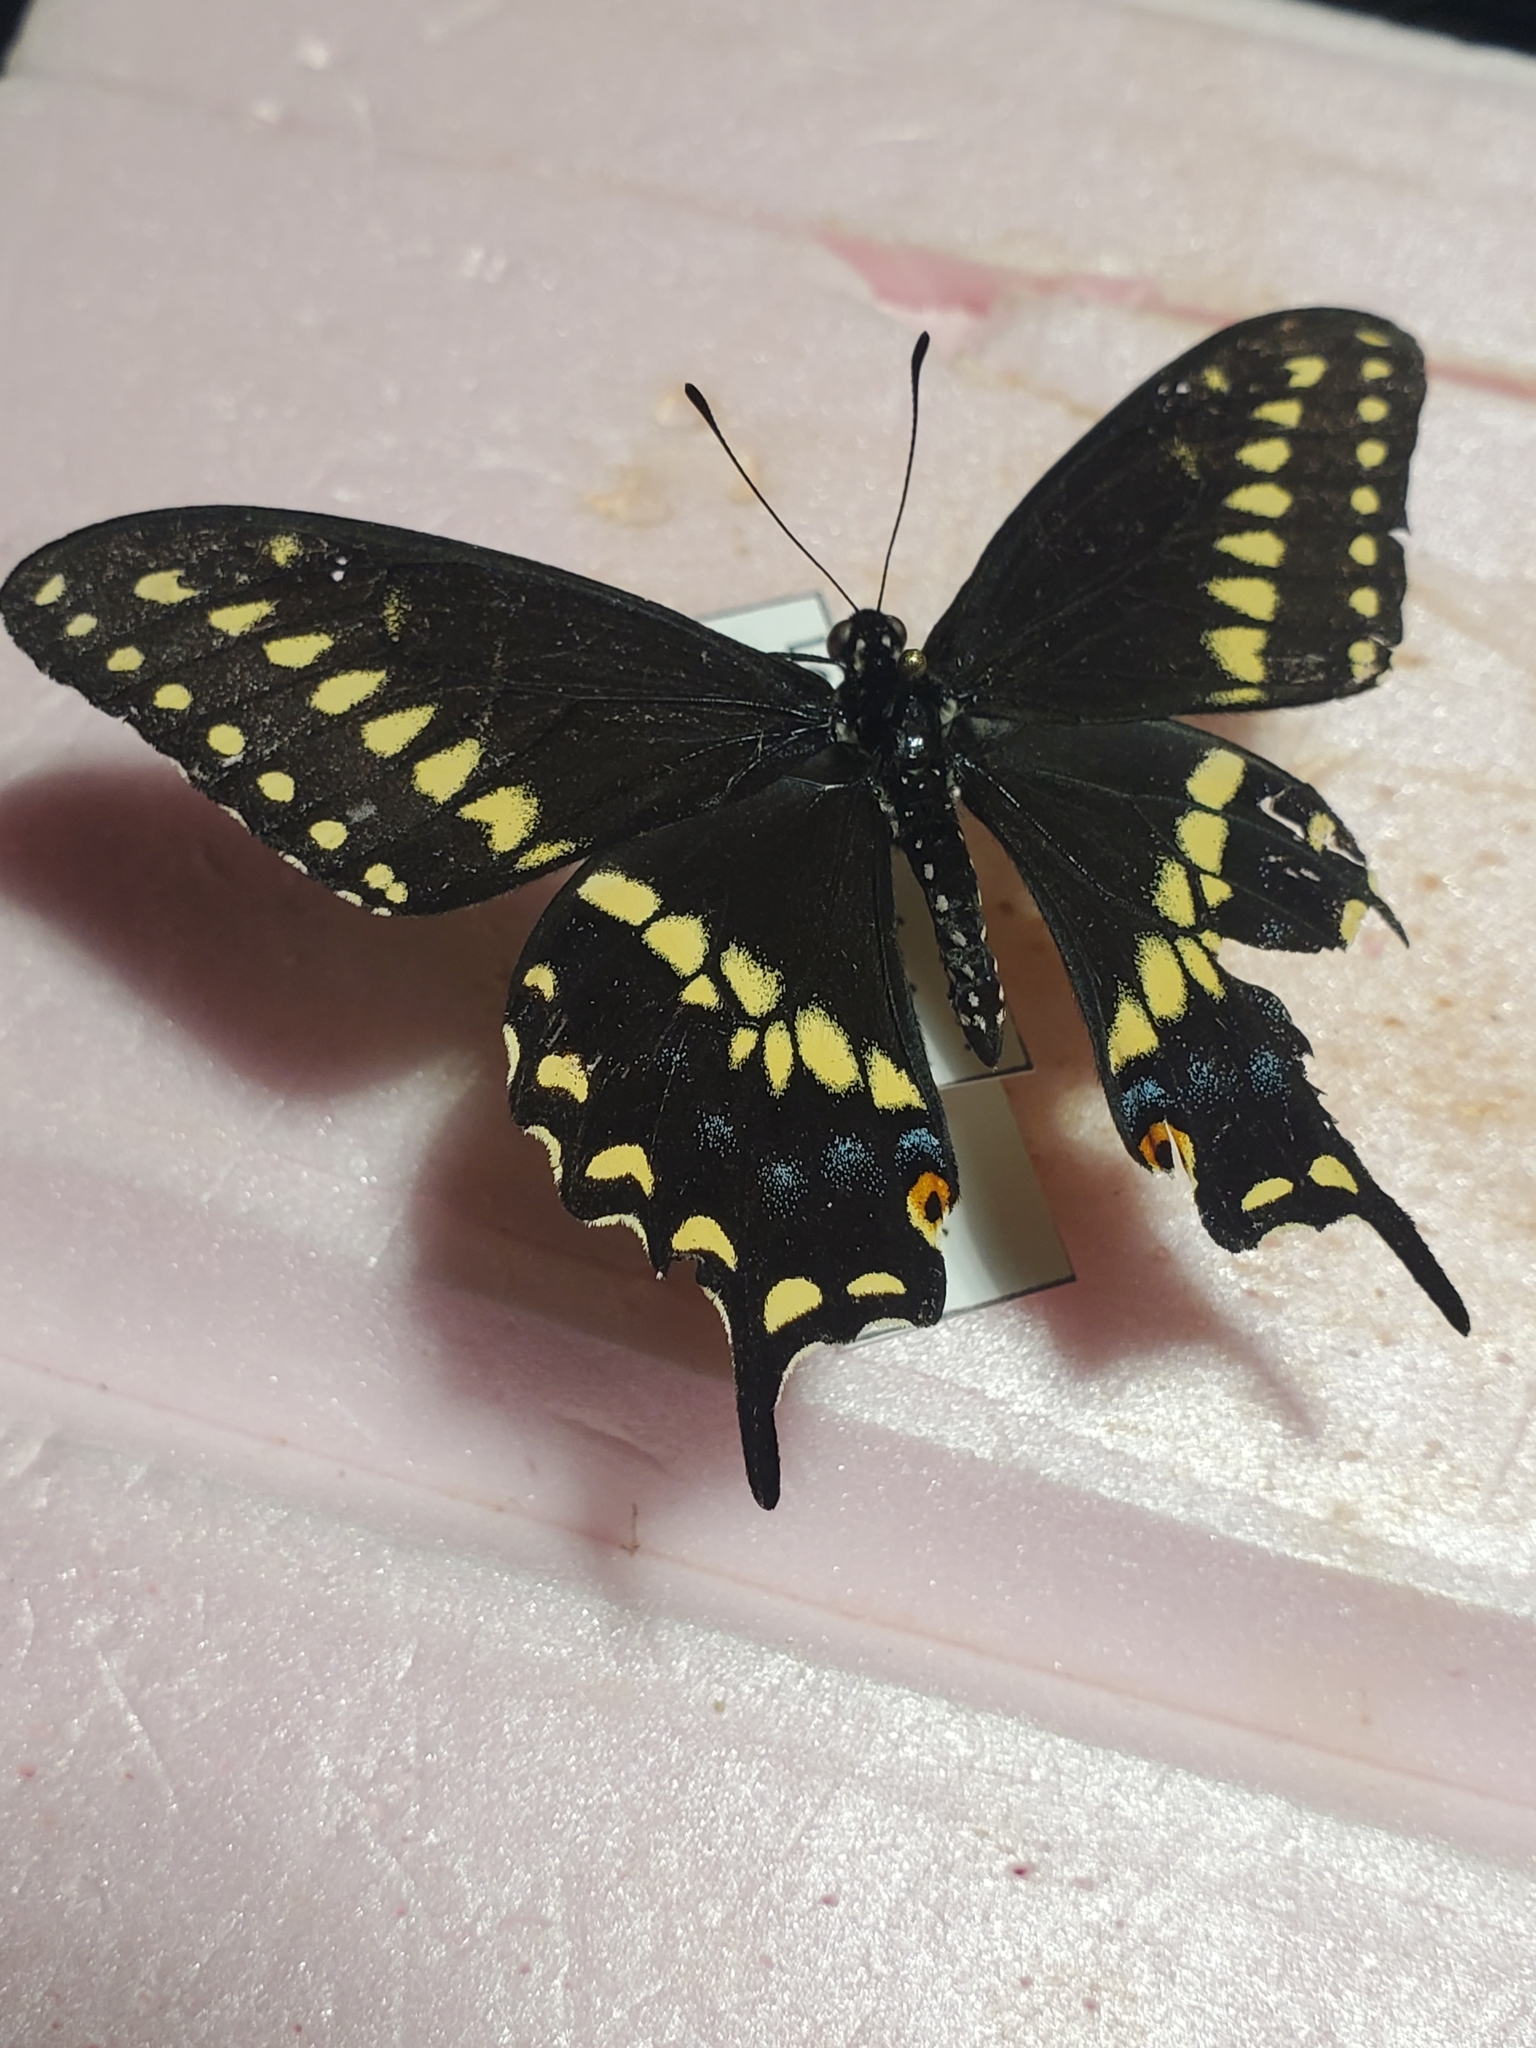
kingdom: Animalia
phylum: Arthropoda
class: Insecta
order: Lepidoptera
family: Papilionidae
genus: Papilio
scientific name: Papilio polyxenes
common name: Black swallowtail
